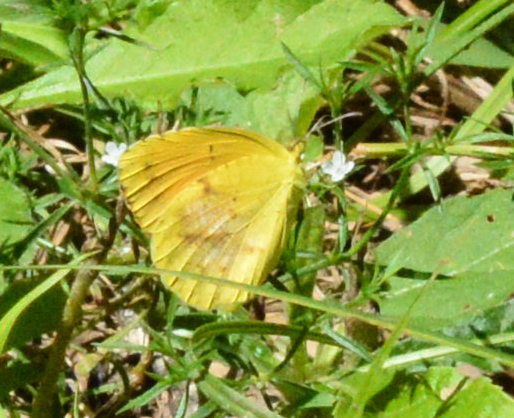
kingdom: Animalia
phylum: Arthropoda
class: Insecta
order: Lepidoptera
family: Pieridae
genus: Abaeis
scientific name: Abaeis nicippe
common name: Sleepy orange
